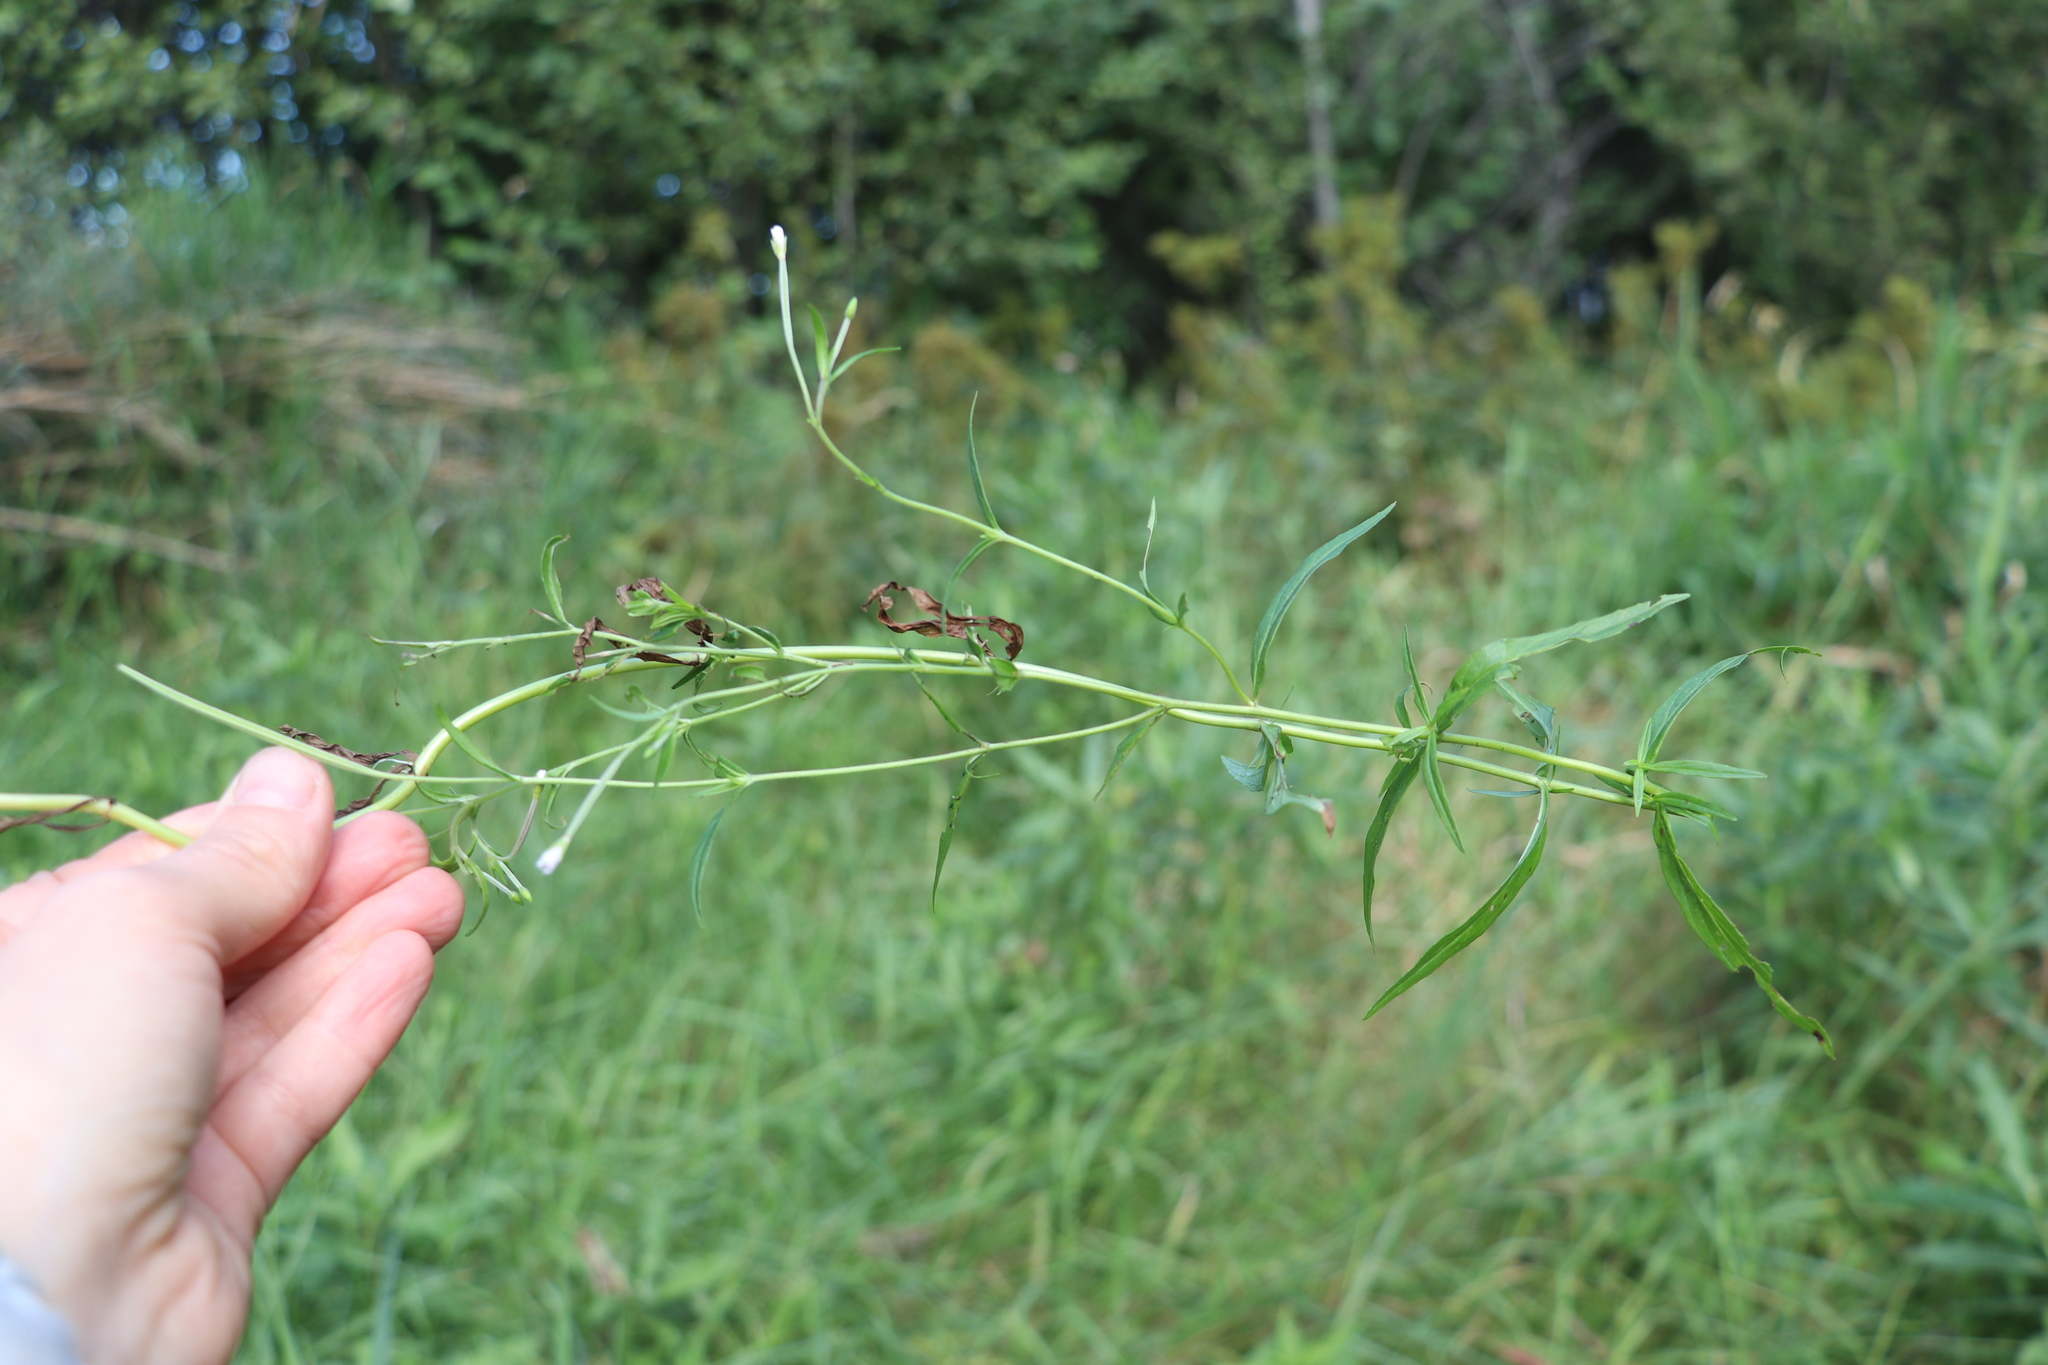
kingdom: Plantae
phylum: Tracheophyta
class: Magnoliopsida
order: Myrtales
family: Onagraceae
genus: Epilobium
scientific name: Epilobium palustre
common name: Marsh willowherb
